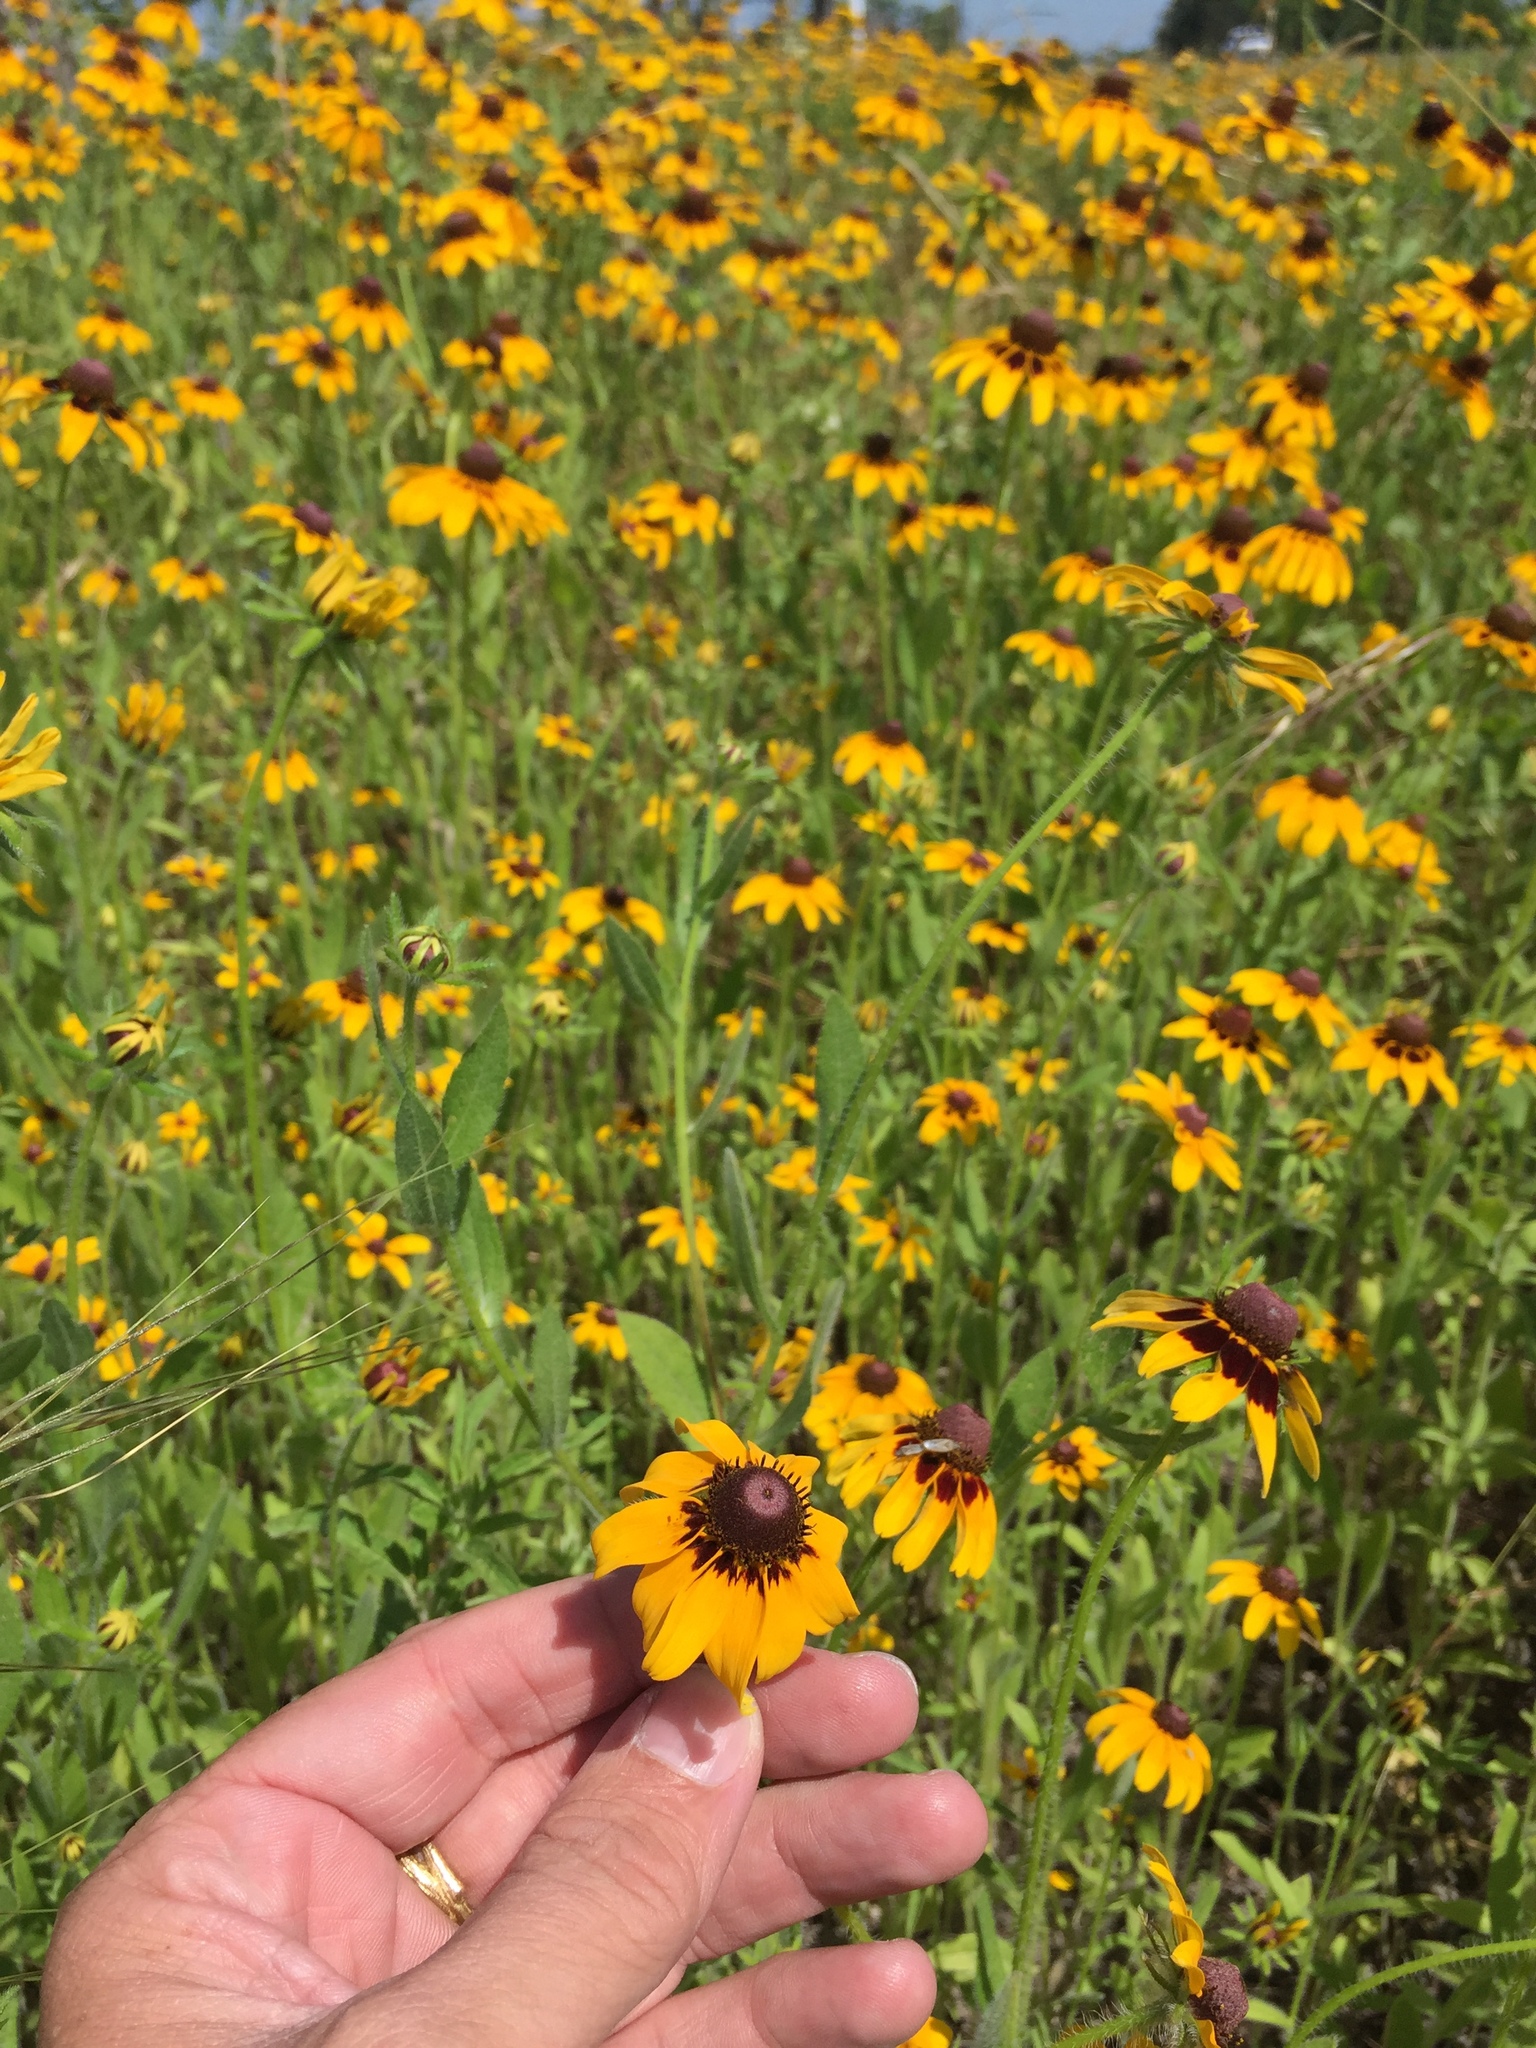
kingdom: Plantae
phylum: Tracheophyta
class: Magnoliopsida
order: Asterales
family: Asteraceae
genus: Rudbeckia
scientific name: Rudbeckia hirta
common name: Black-eyed-susan
